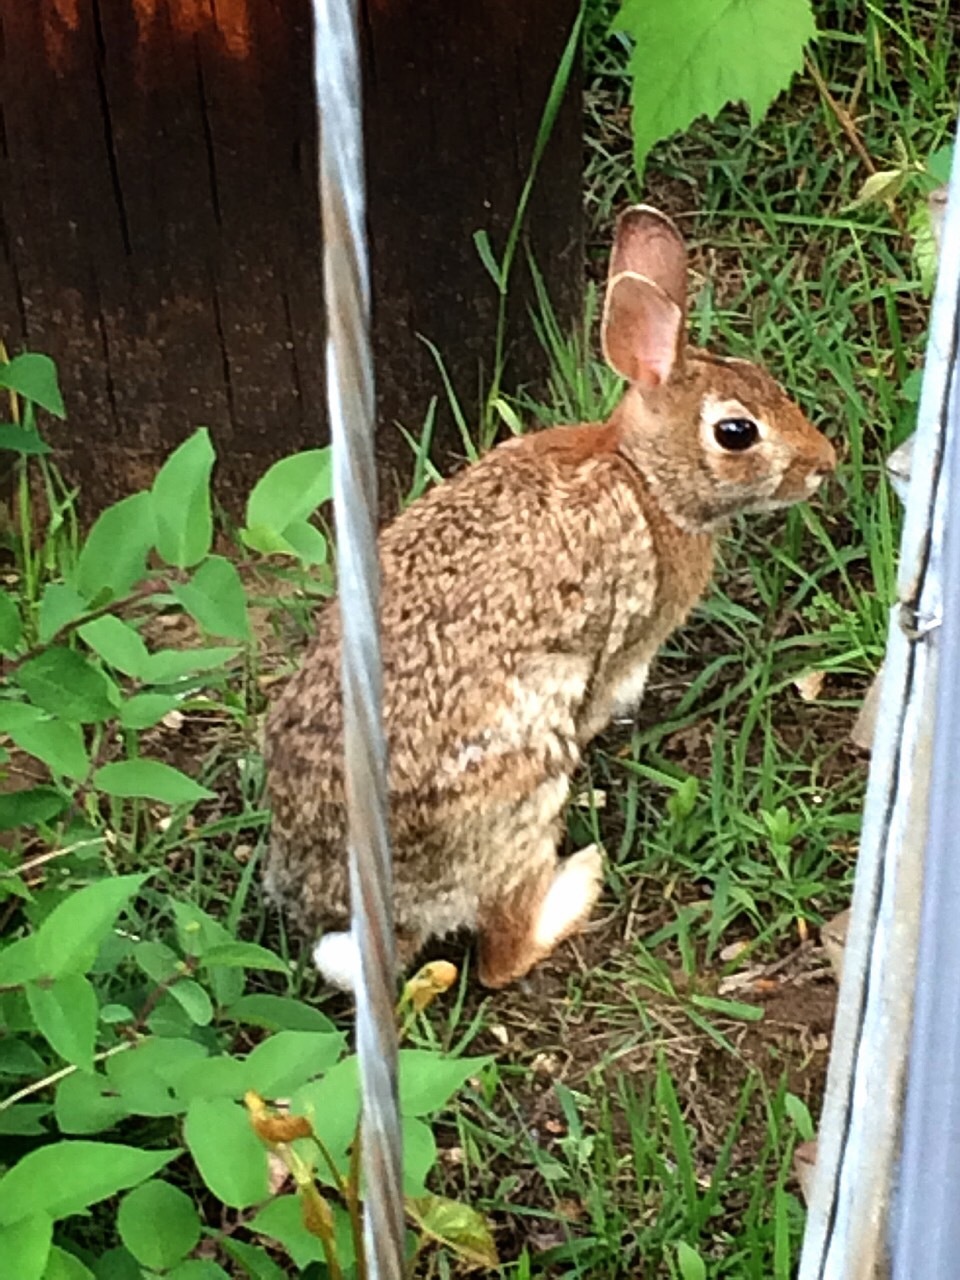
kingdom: Animalia
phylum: Chordata
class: Mammalia
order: Lagomorpha
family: Leporidae
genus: Sylvilagus
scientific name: Sylvilagus floridanus
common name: Eastern cottontail
